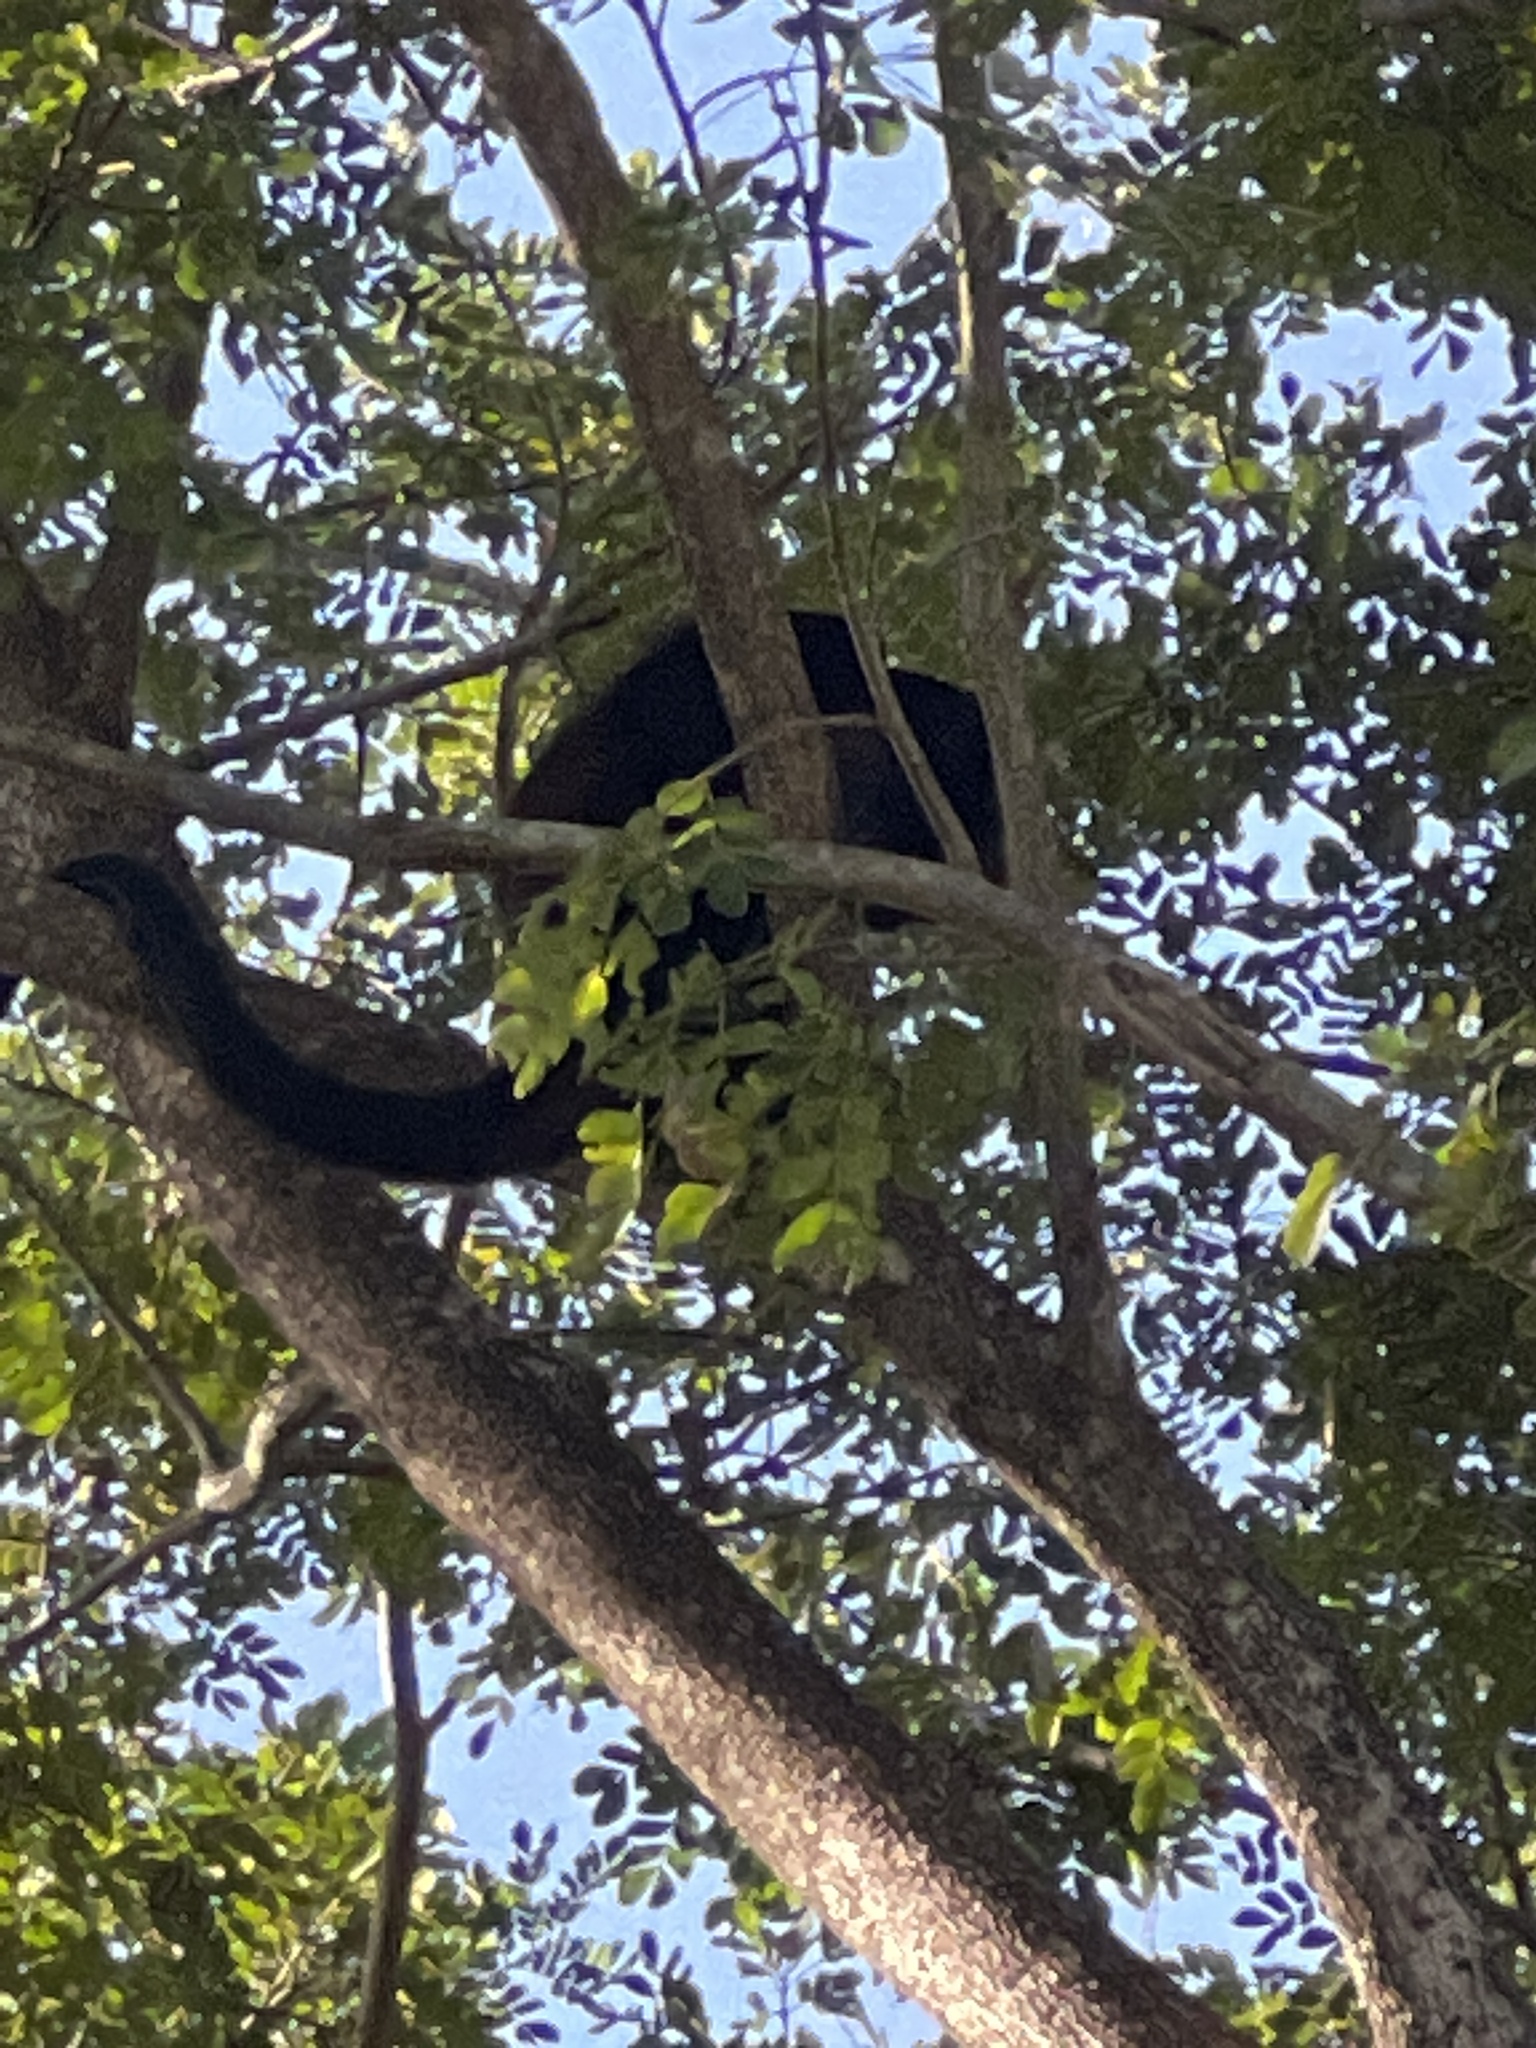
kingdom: Animalia
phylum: Chordata
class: Mammalia
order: Primates
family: Atelidae
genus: Alouatta
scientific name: Alouatta palliata
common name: Mantled howler
